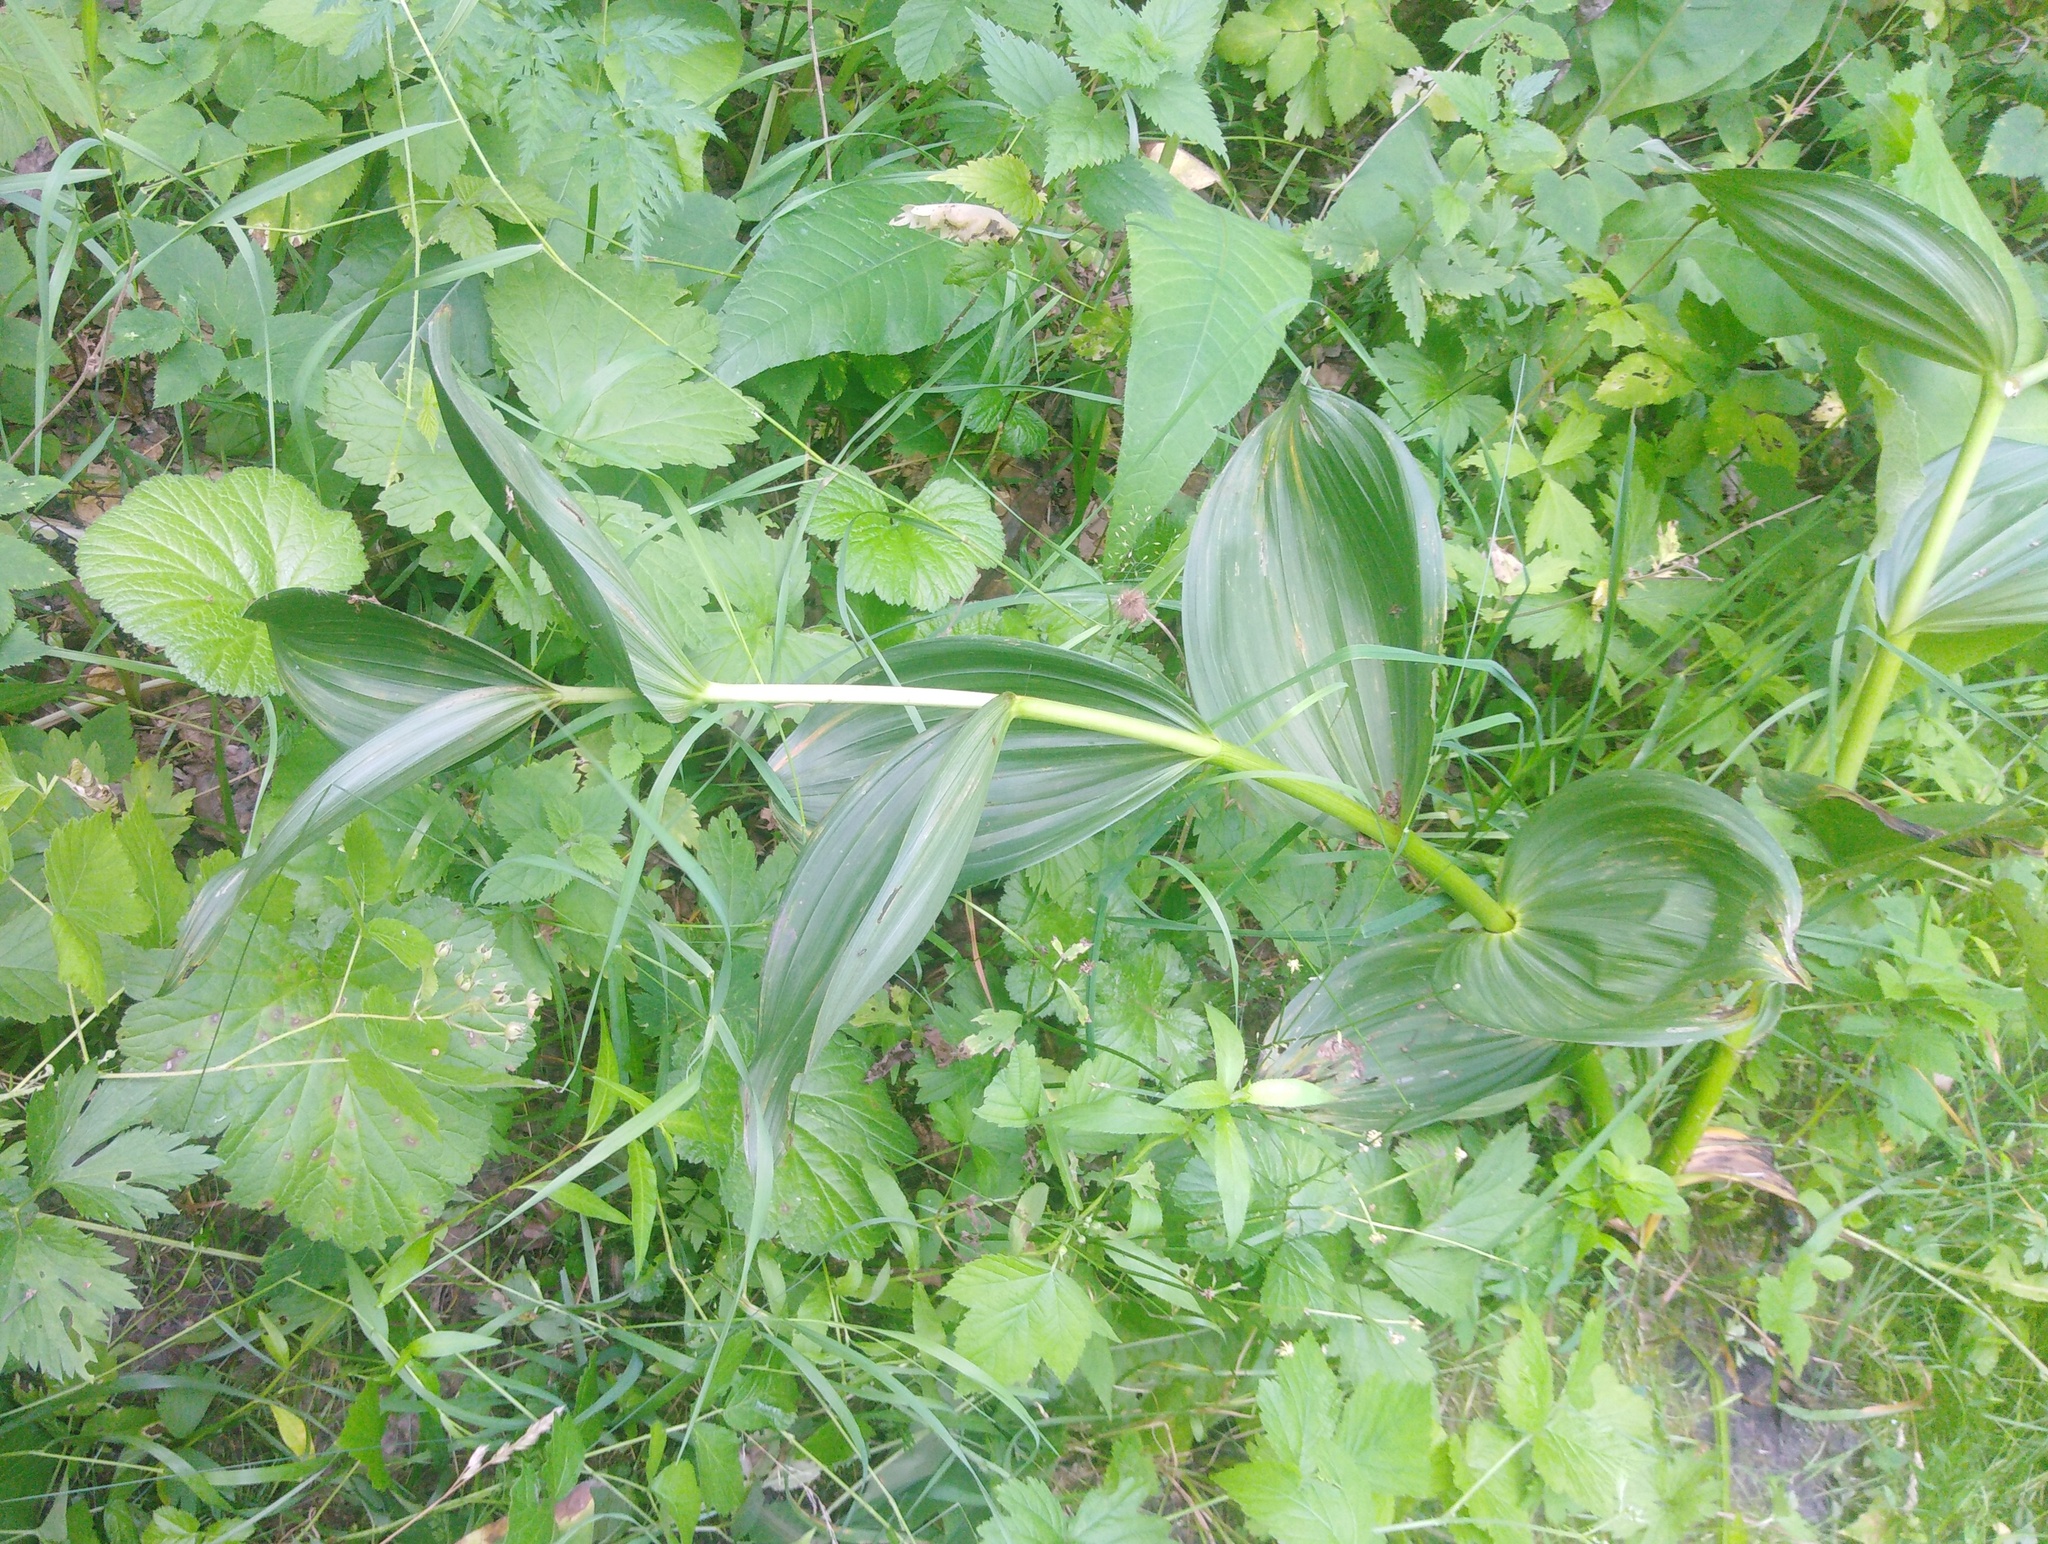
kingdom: Plantae
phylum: Tracheophyta
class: Liliopsida
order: Liliales
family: Melanthiaceae
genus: Veratrum
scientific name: Veratrum lobelianum
